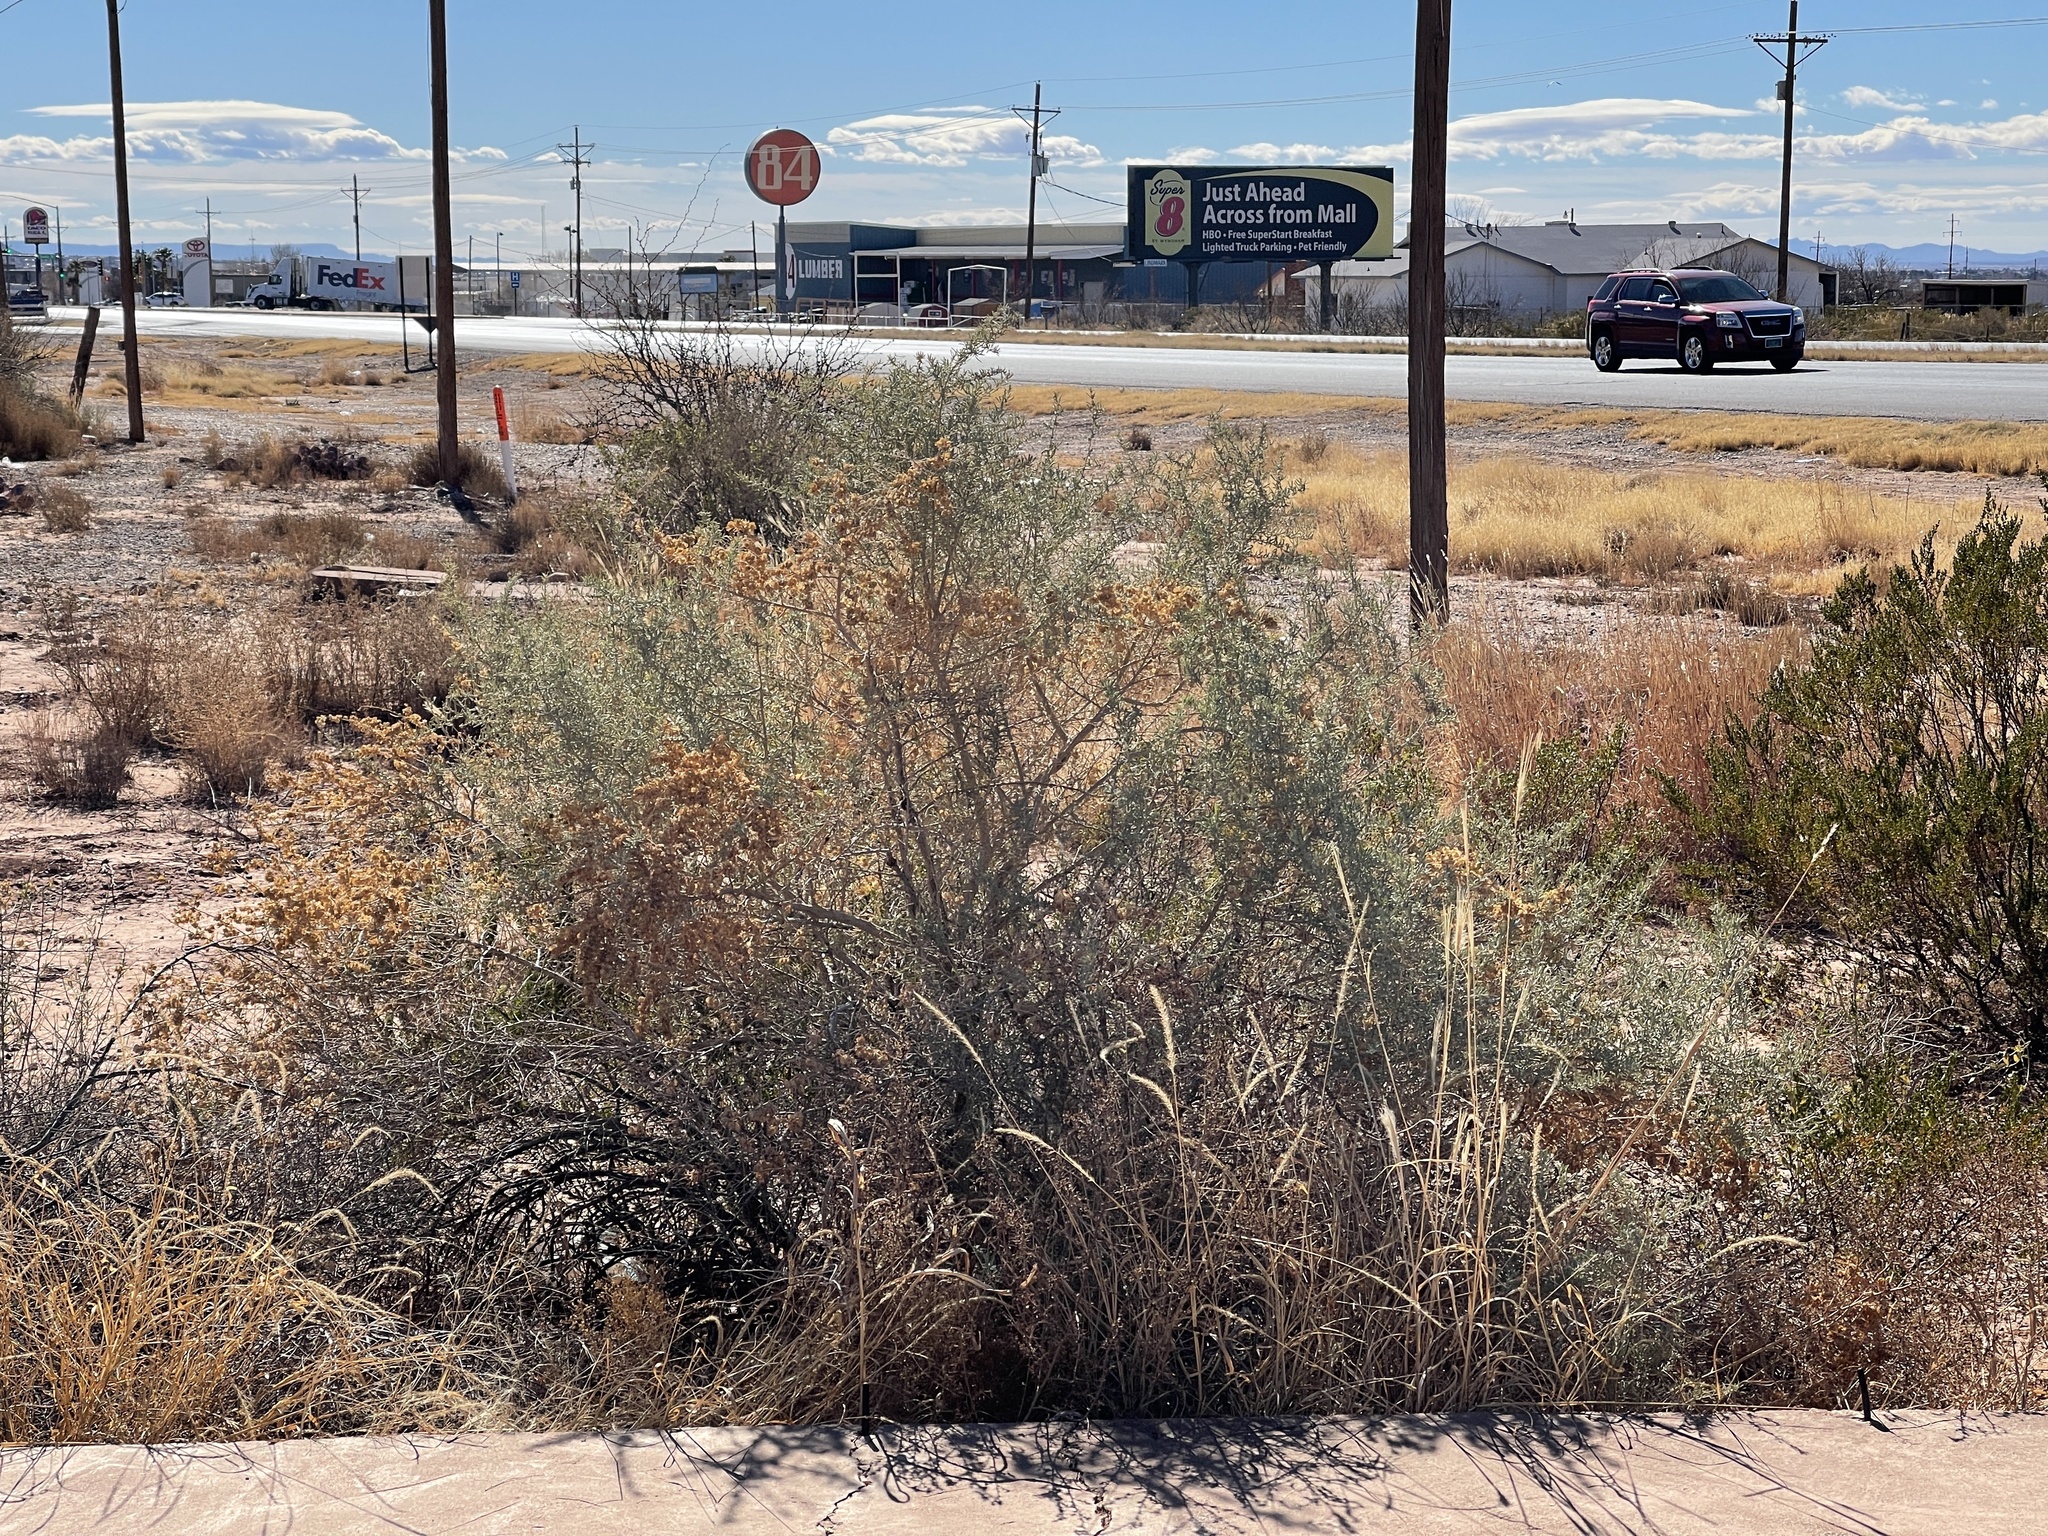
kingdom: Plantae
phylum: Tracheophyta
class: Magnoliopsida
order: Caryophyllales
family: Amaranthaceae
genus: Atriplex
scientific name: Atriplex canescens
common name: Four-wing saltbush
